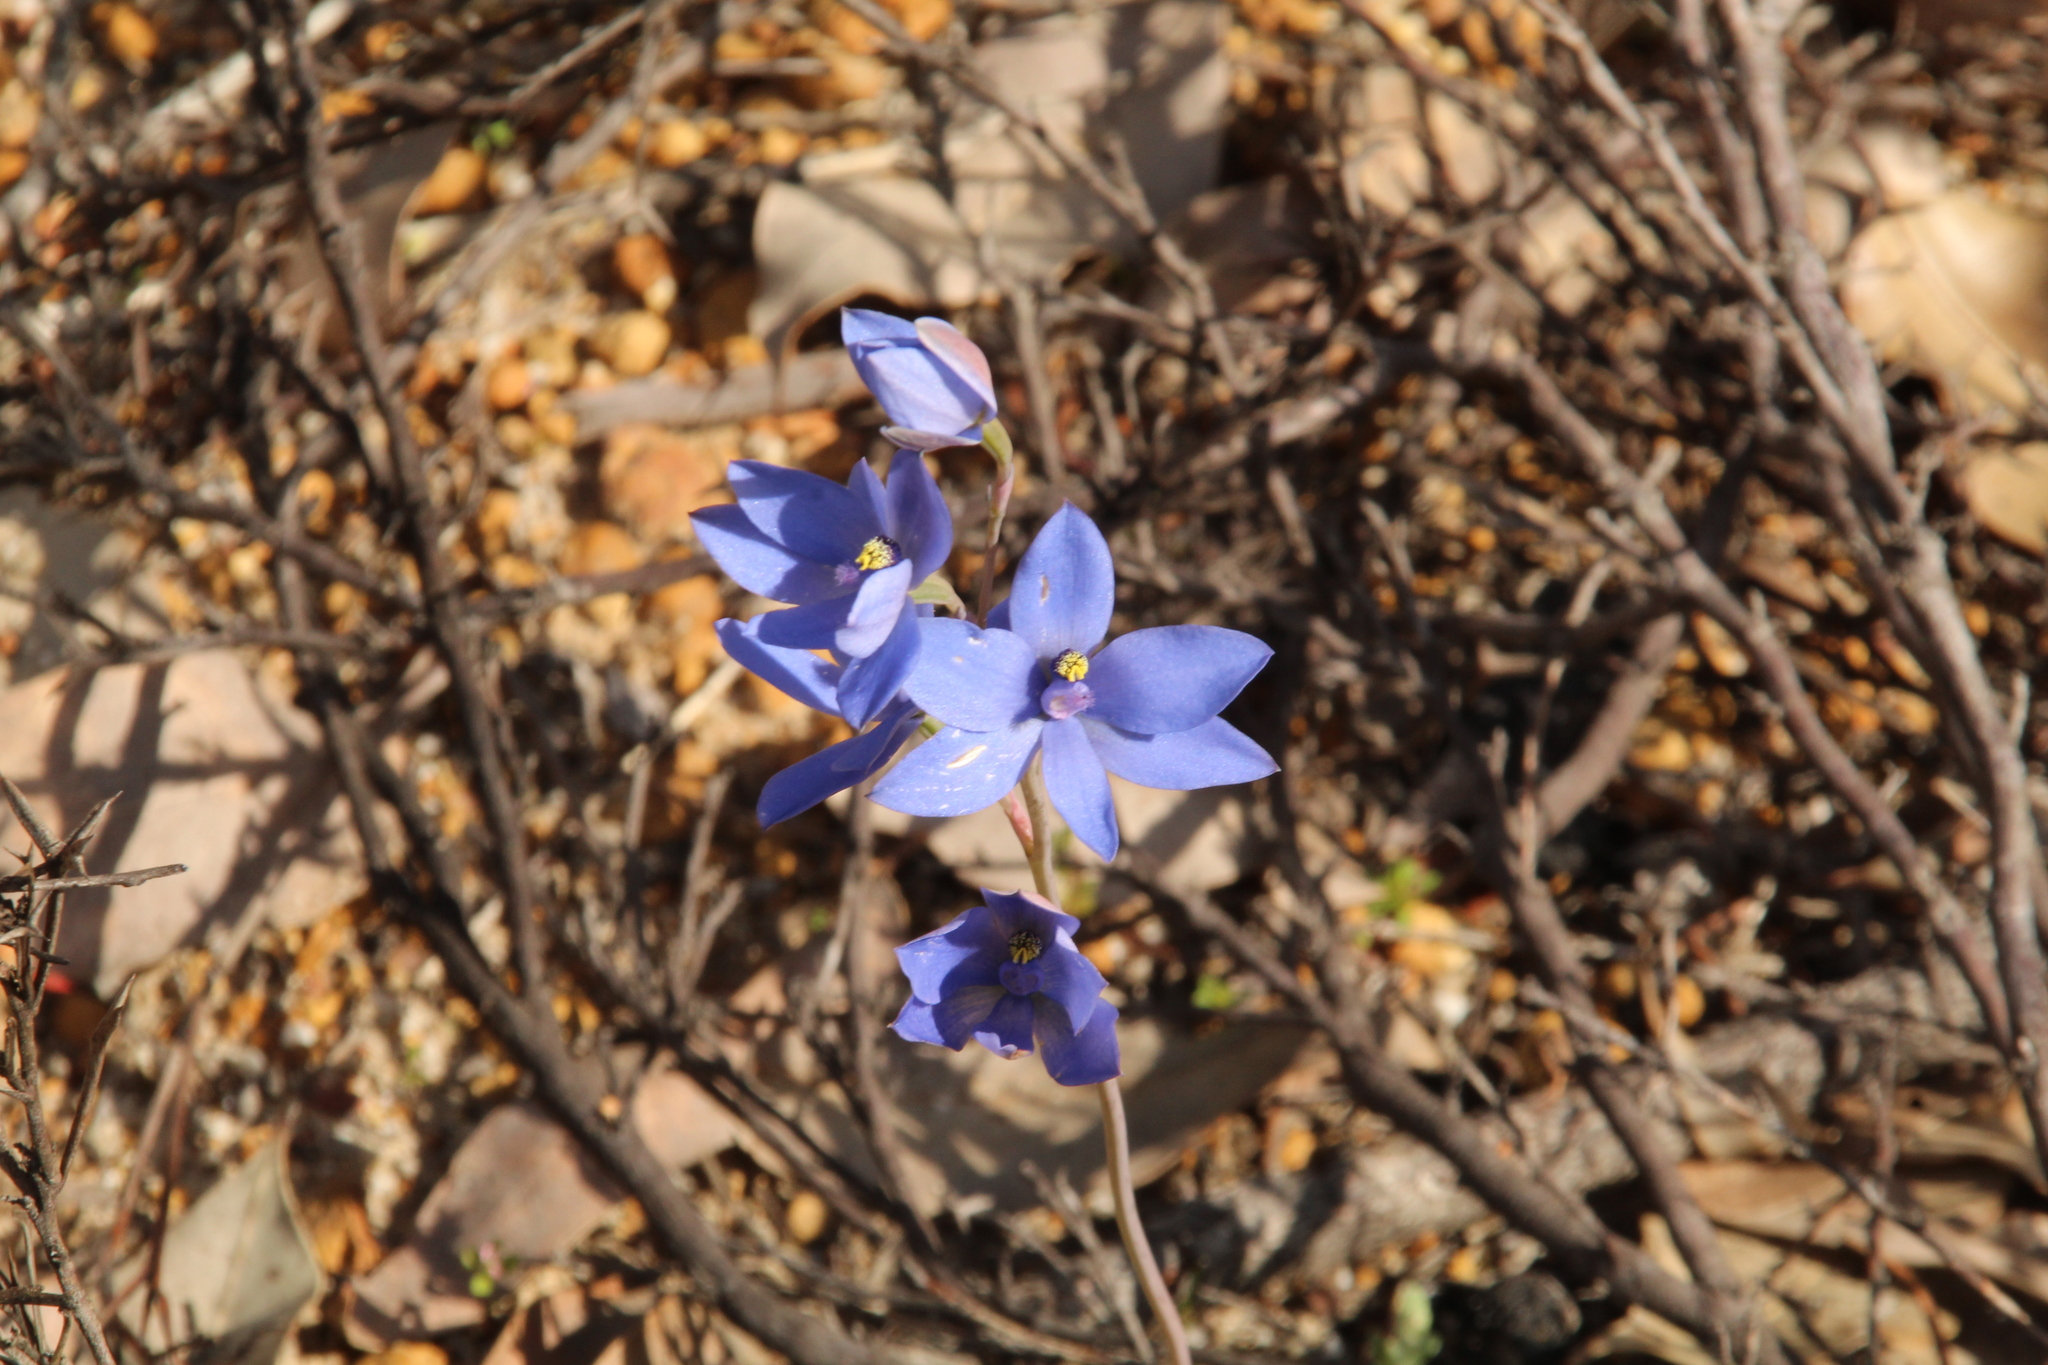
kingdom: Plantae
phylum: Tracheophyta
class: Liliopsida
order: Asparagales
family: Orchidaceae
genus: Thelymitra
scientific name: Thelymitra crinita
